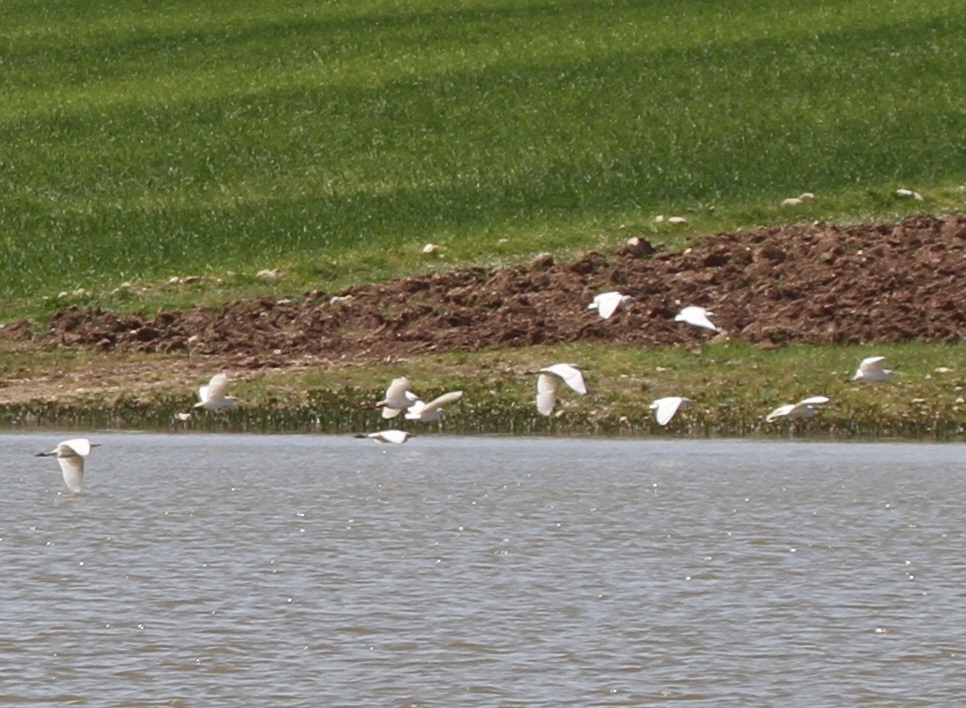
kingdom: Animalia
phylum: Chordata
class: Aves
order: Pelecaniformes
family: Ardeidae
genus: Bubulcus
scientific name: Bubulcus ibis
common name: Cattle egret
